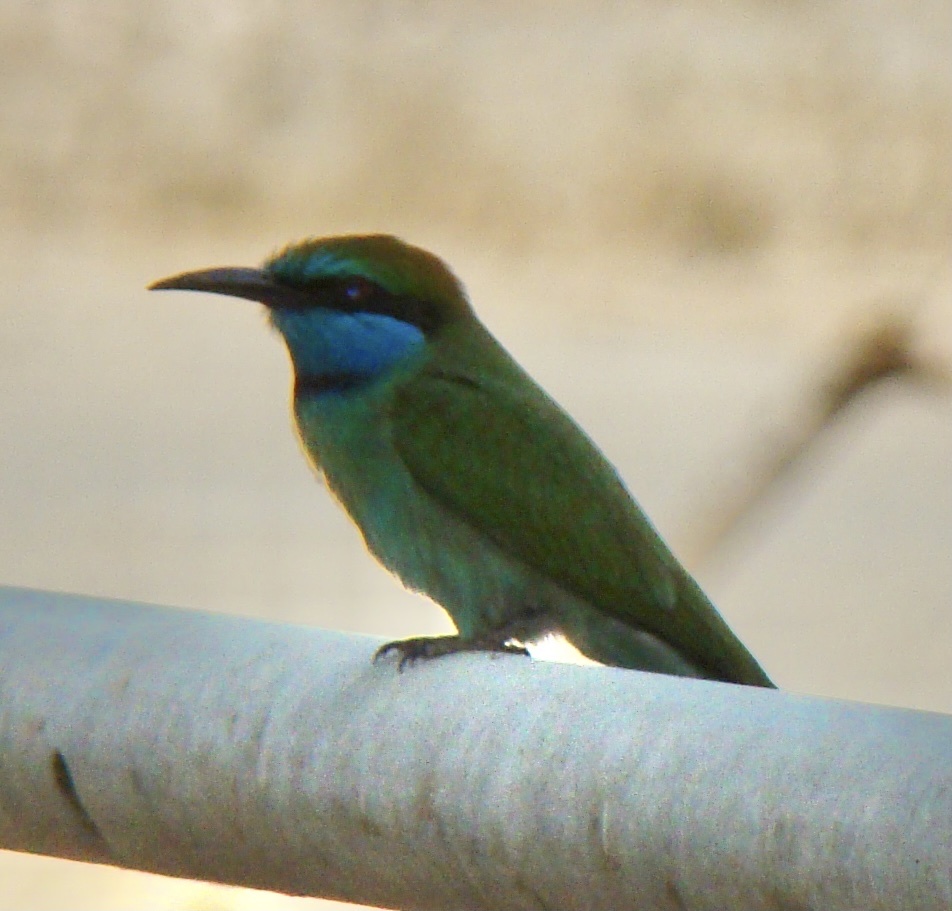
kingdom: Animalia
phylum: Chordata
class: Aves
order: Coraciiformes
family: Meropidae
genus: Merops
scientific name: Merops cyanophrys
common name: Arabian green bee-eater
